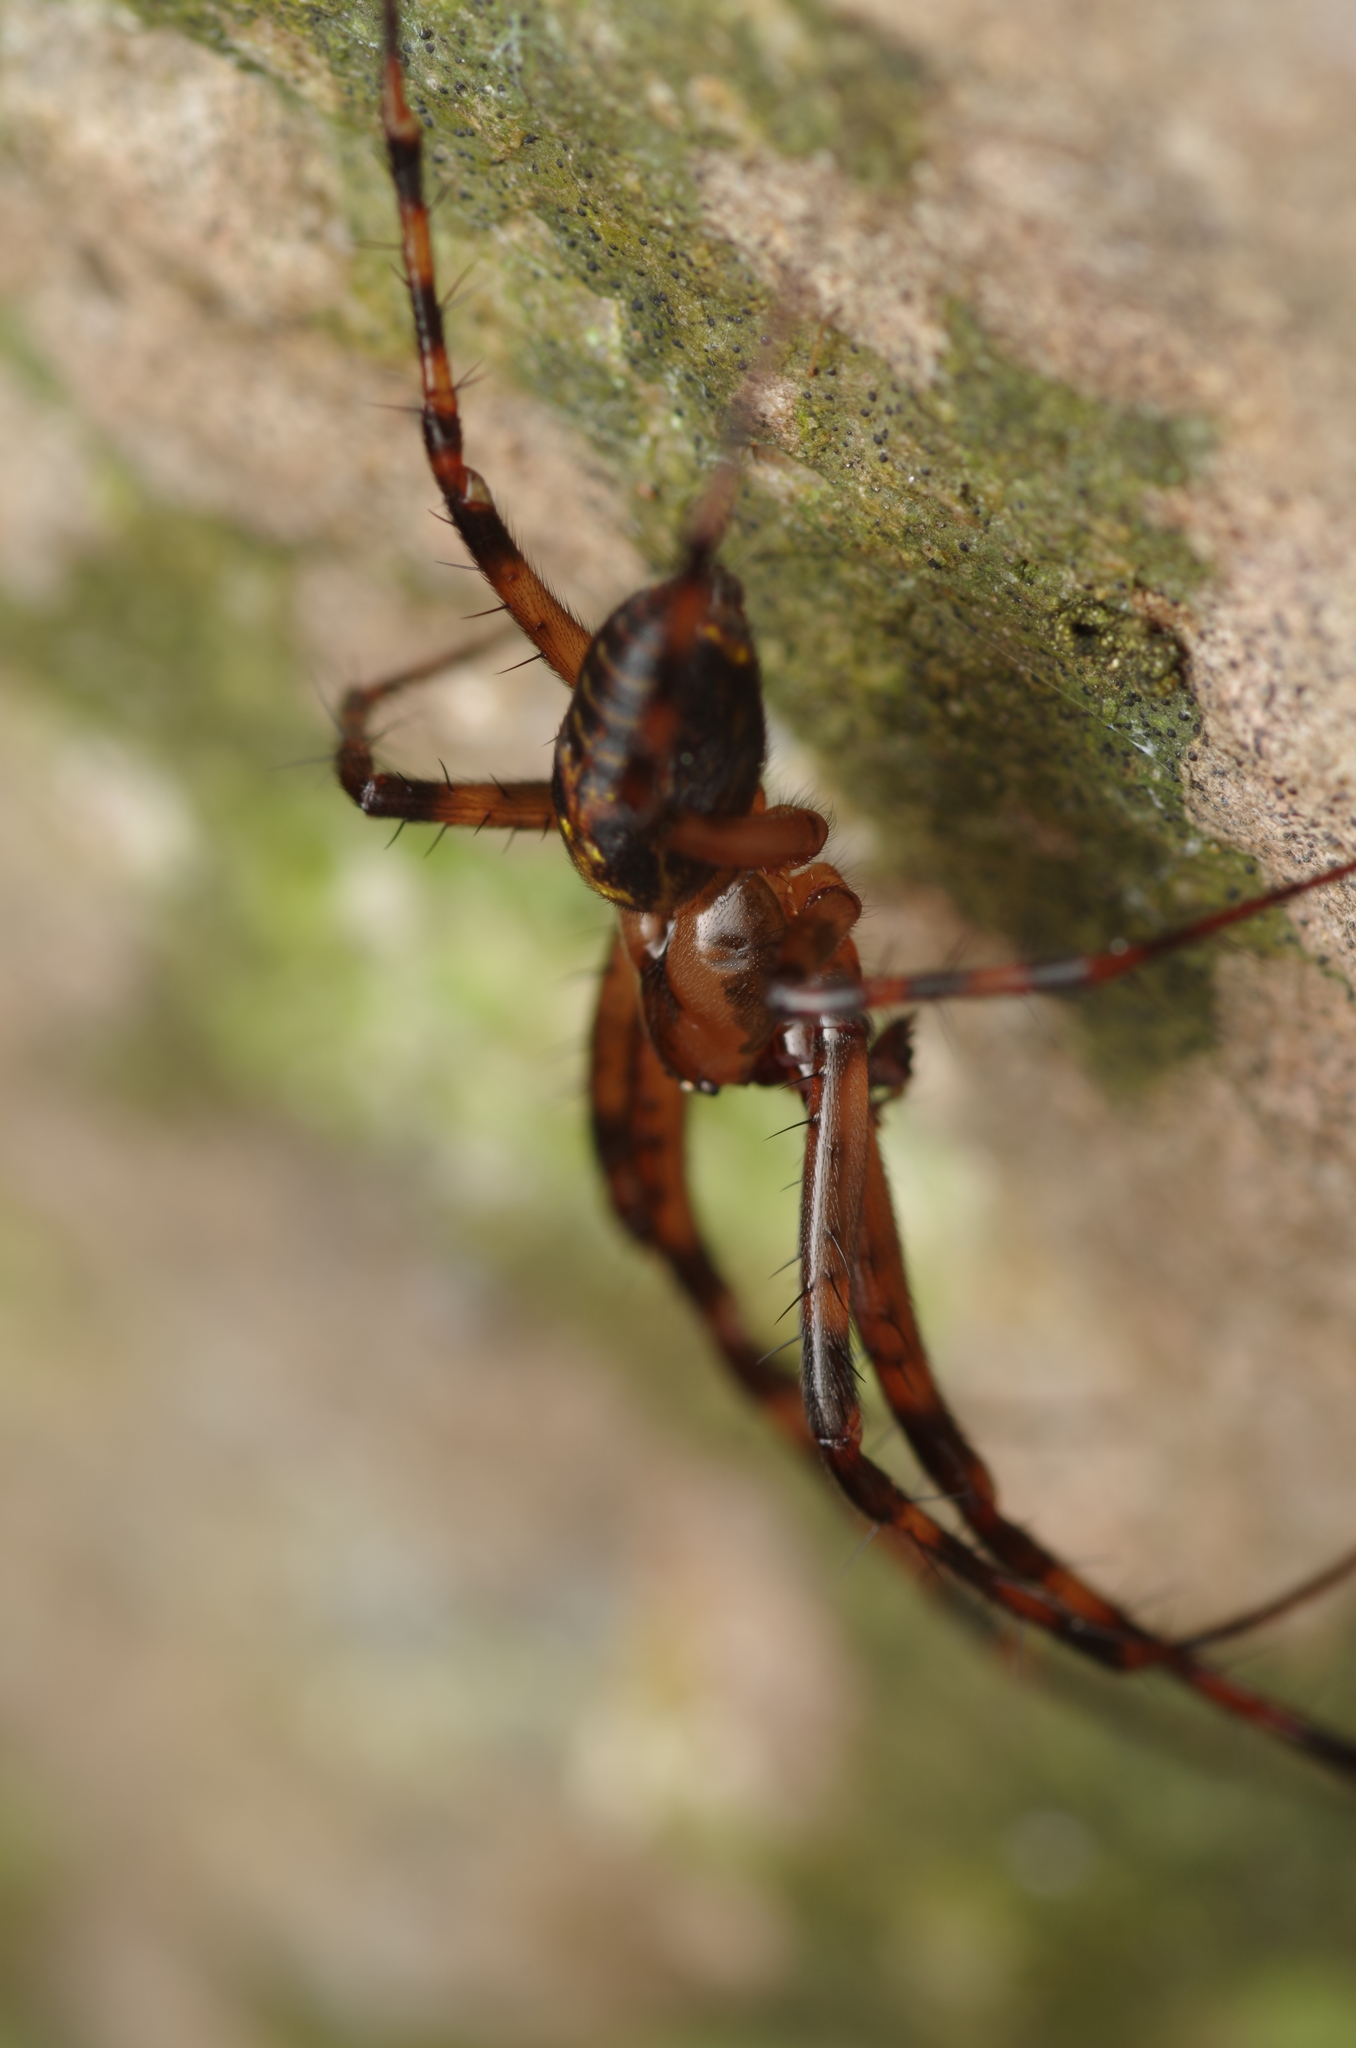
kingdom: Animalia
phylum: Arthropoda
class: Arachnida
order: Araneae
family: Tetragnathidae
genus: Meta
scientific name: Meta menardi
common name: Cave spider
